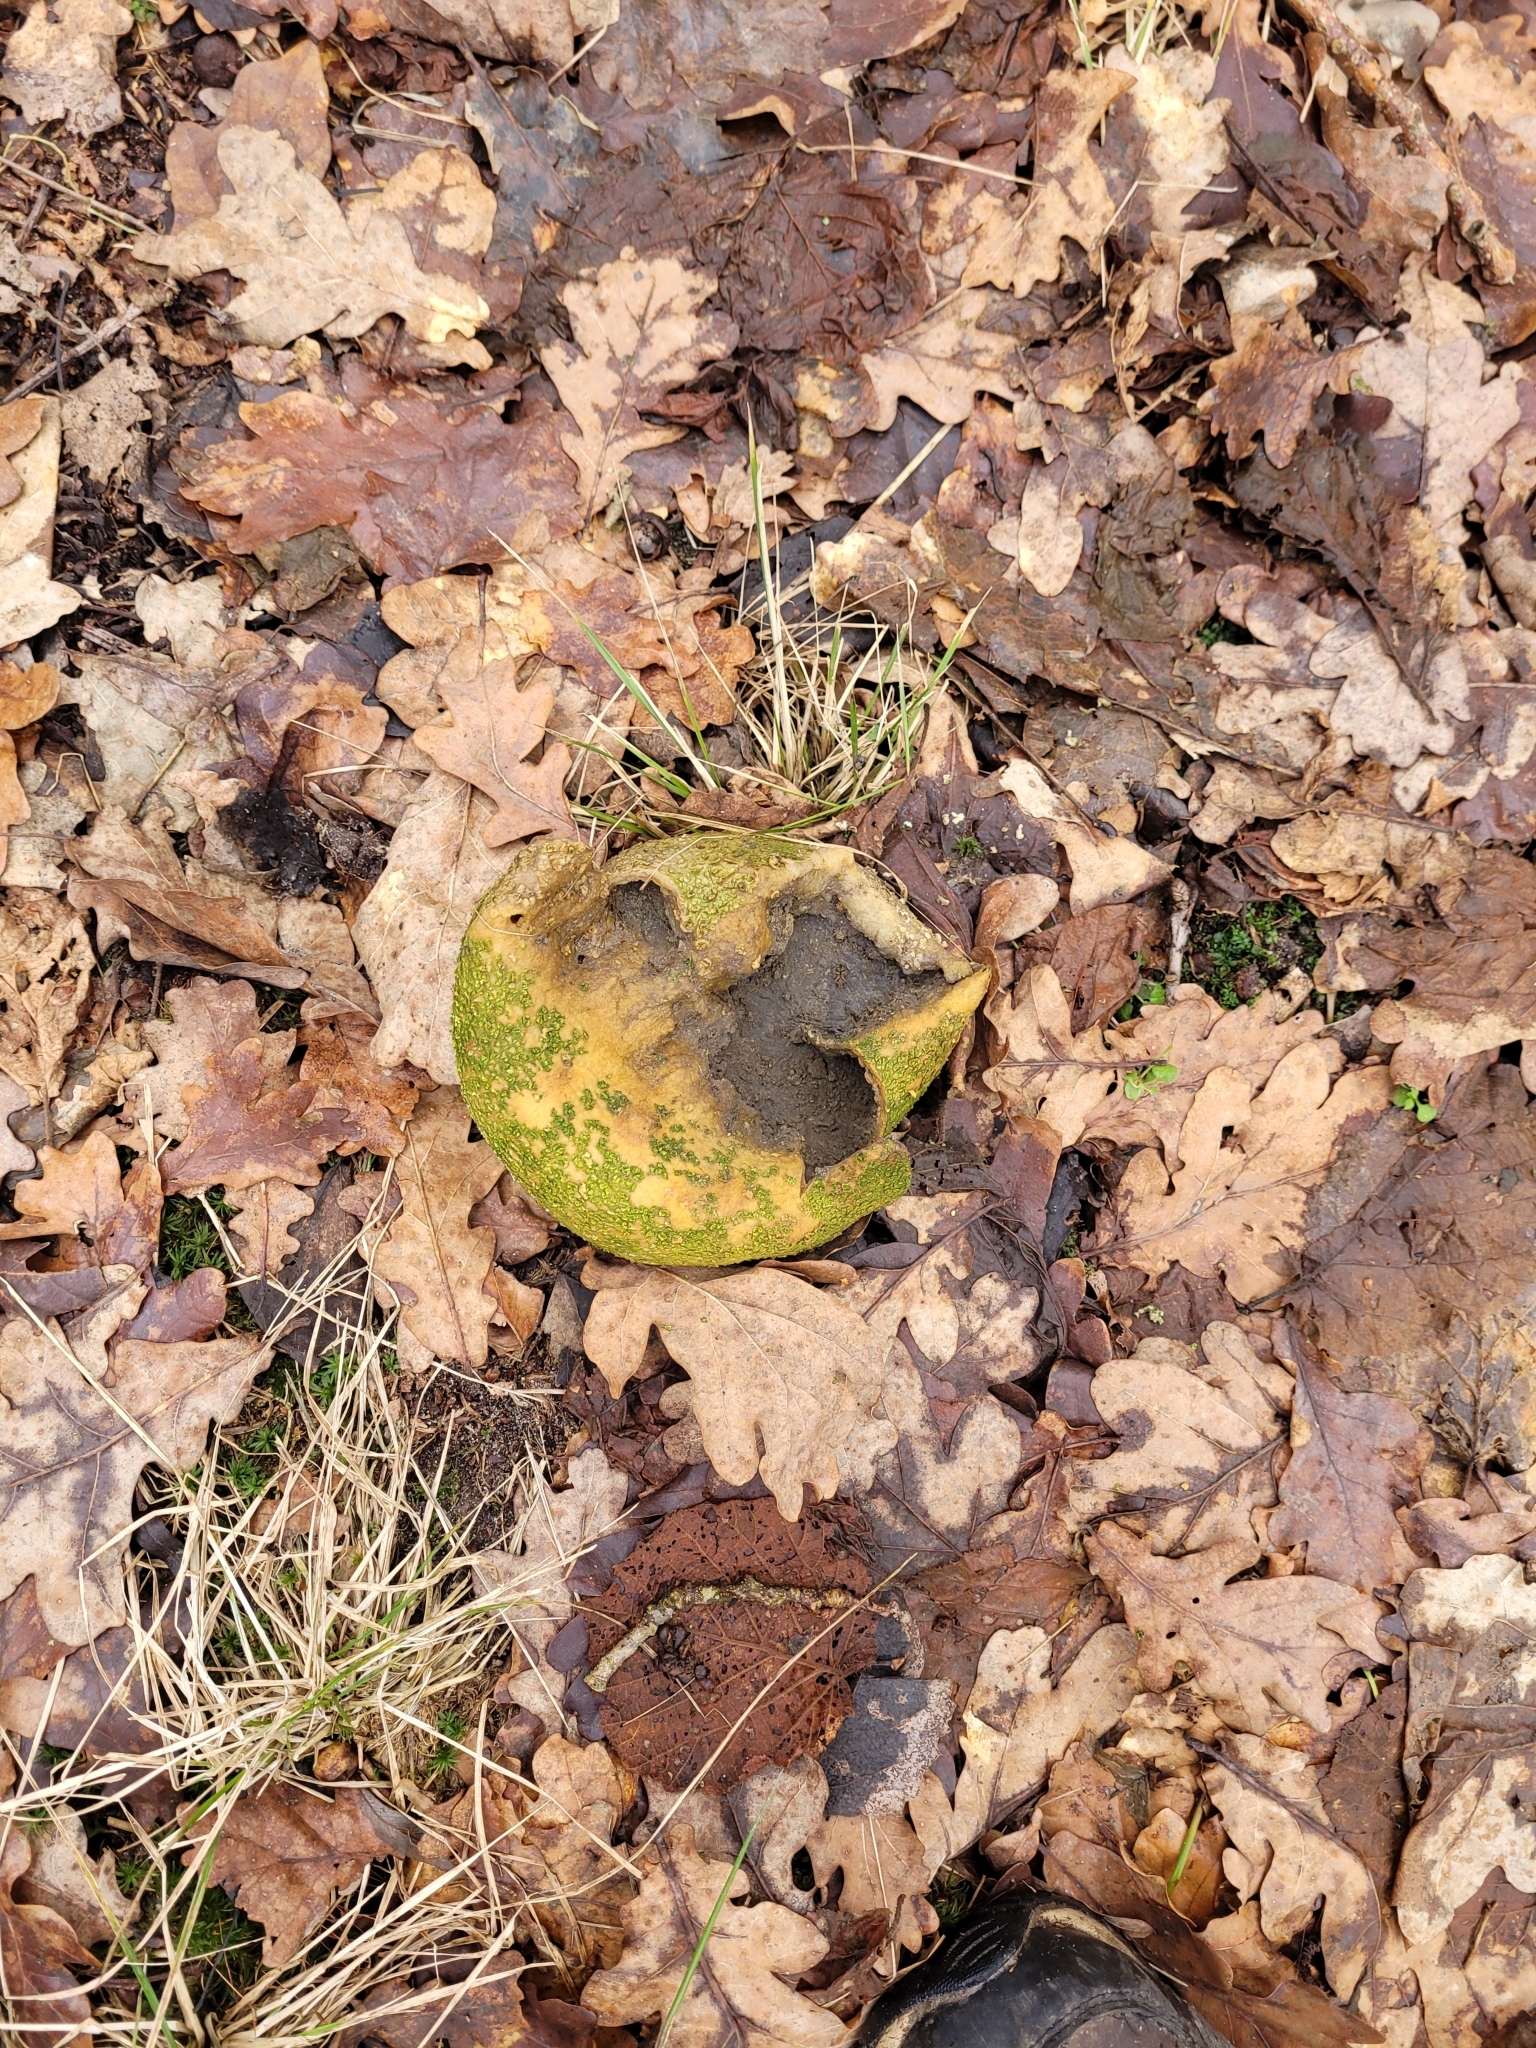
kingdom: Fungi
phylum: Basidiomycota
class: Agaricomycetes
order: Boletales
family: Sclerodermataceae
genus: Scleroderma
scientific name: Scleroderma citrinum
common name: Common earthball
